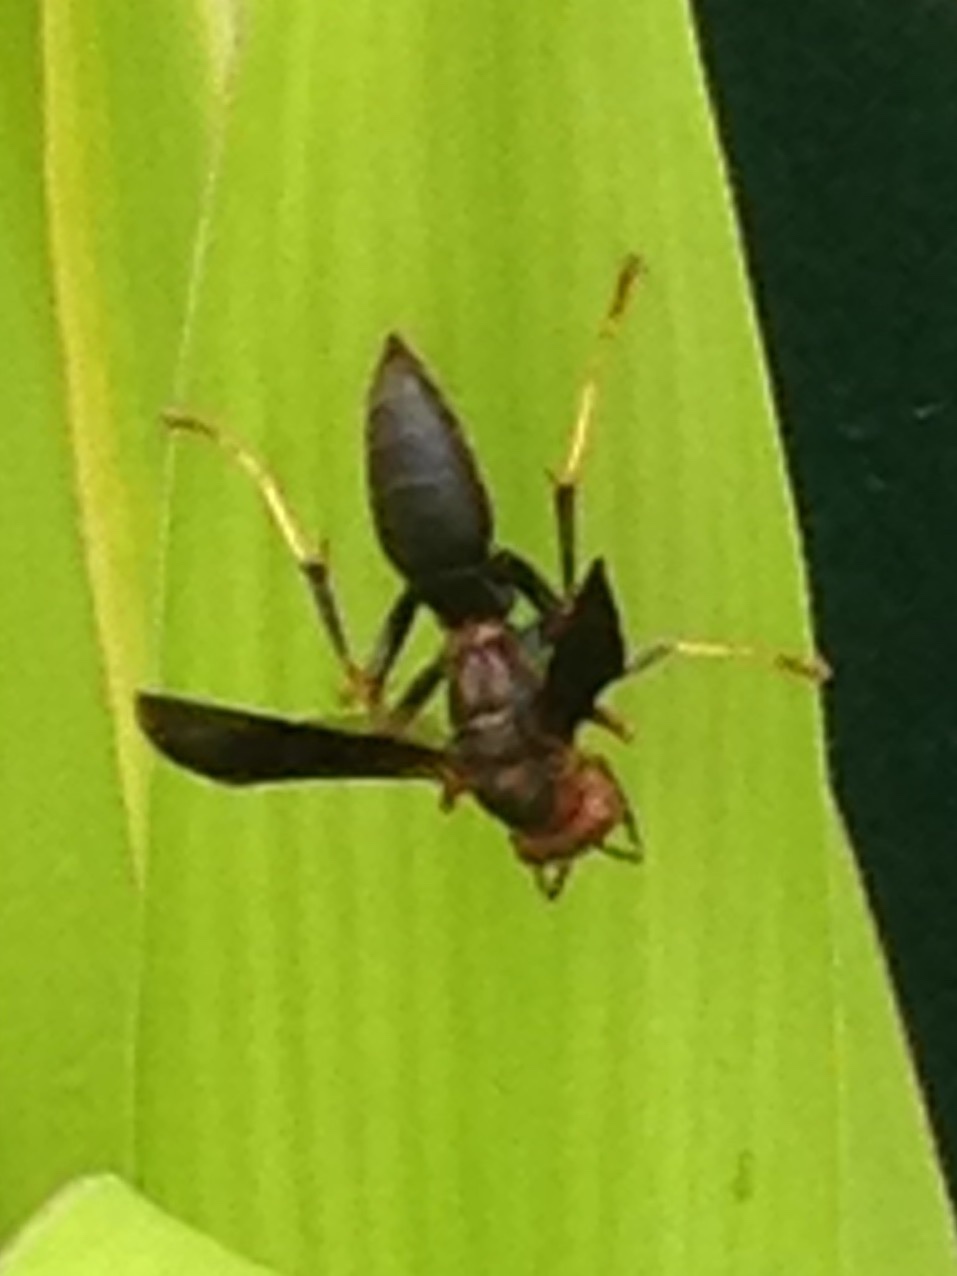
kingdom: Animalia
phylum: Arthropoda
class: Insecta
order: Hymenoptera
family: Eumenidae
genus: Polistes
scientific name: Polistes metricus
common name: Metric paper wasp
